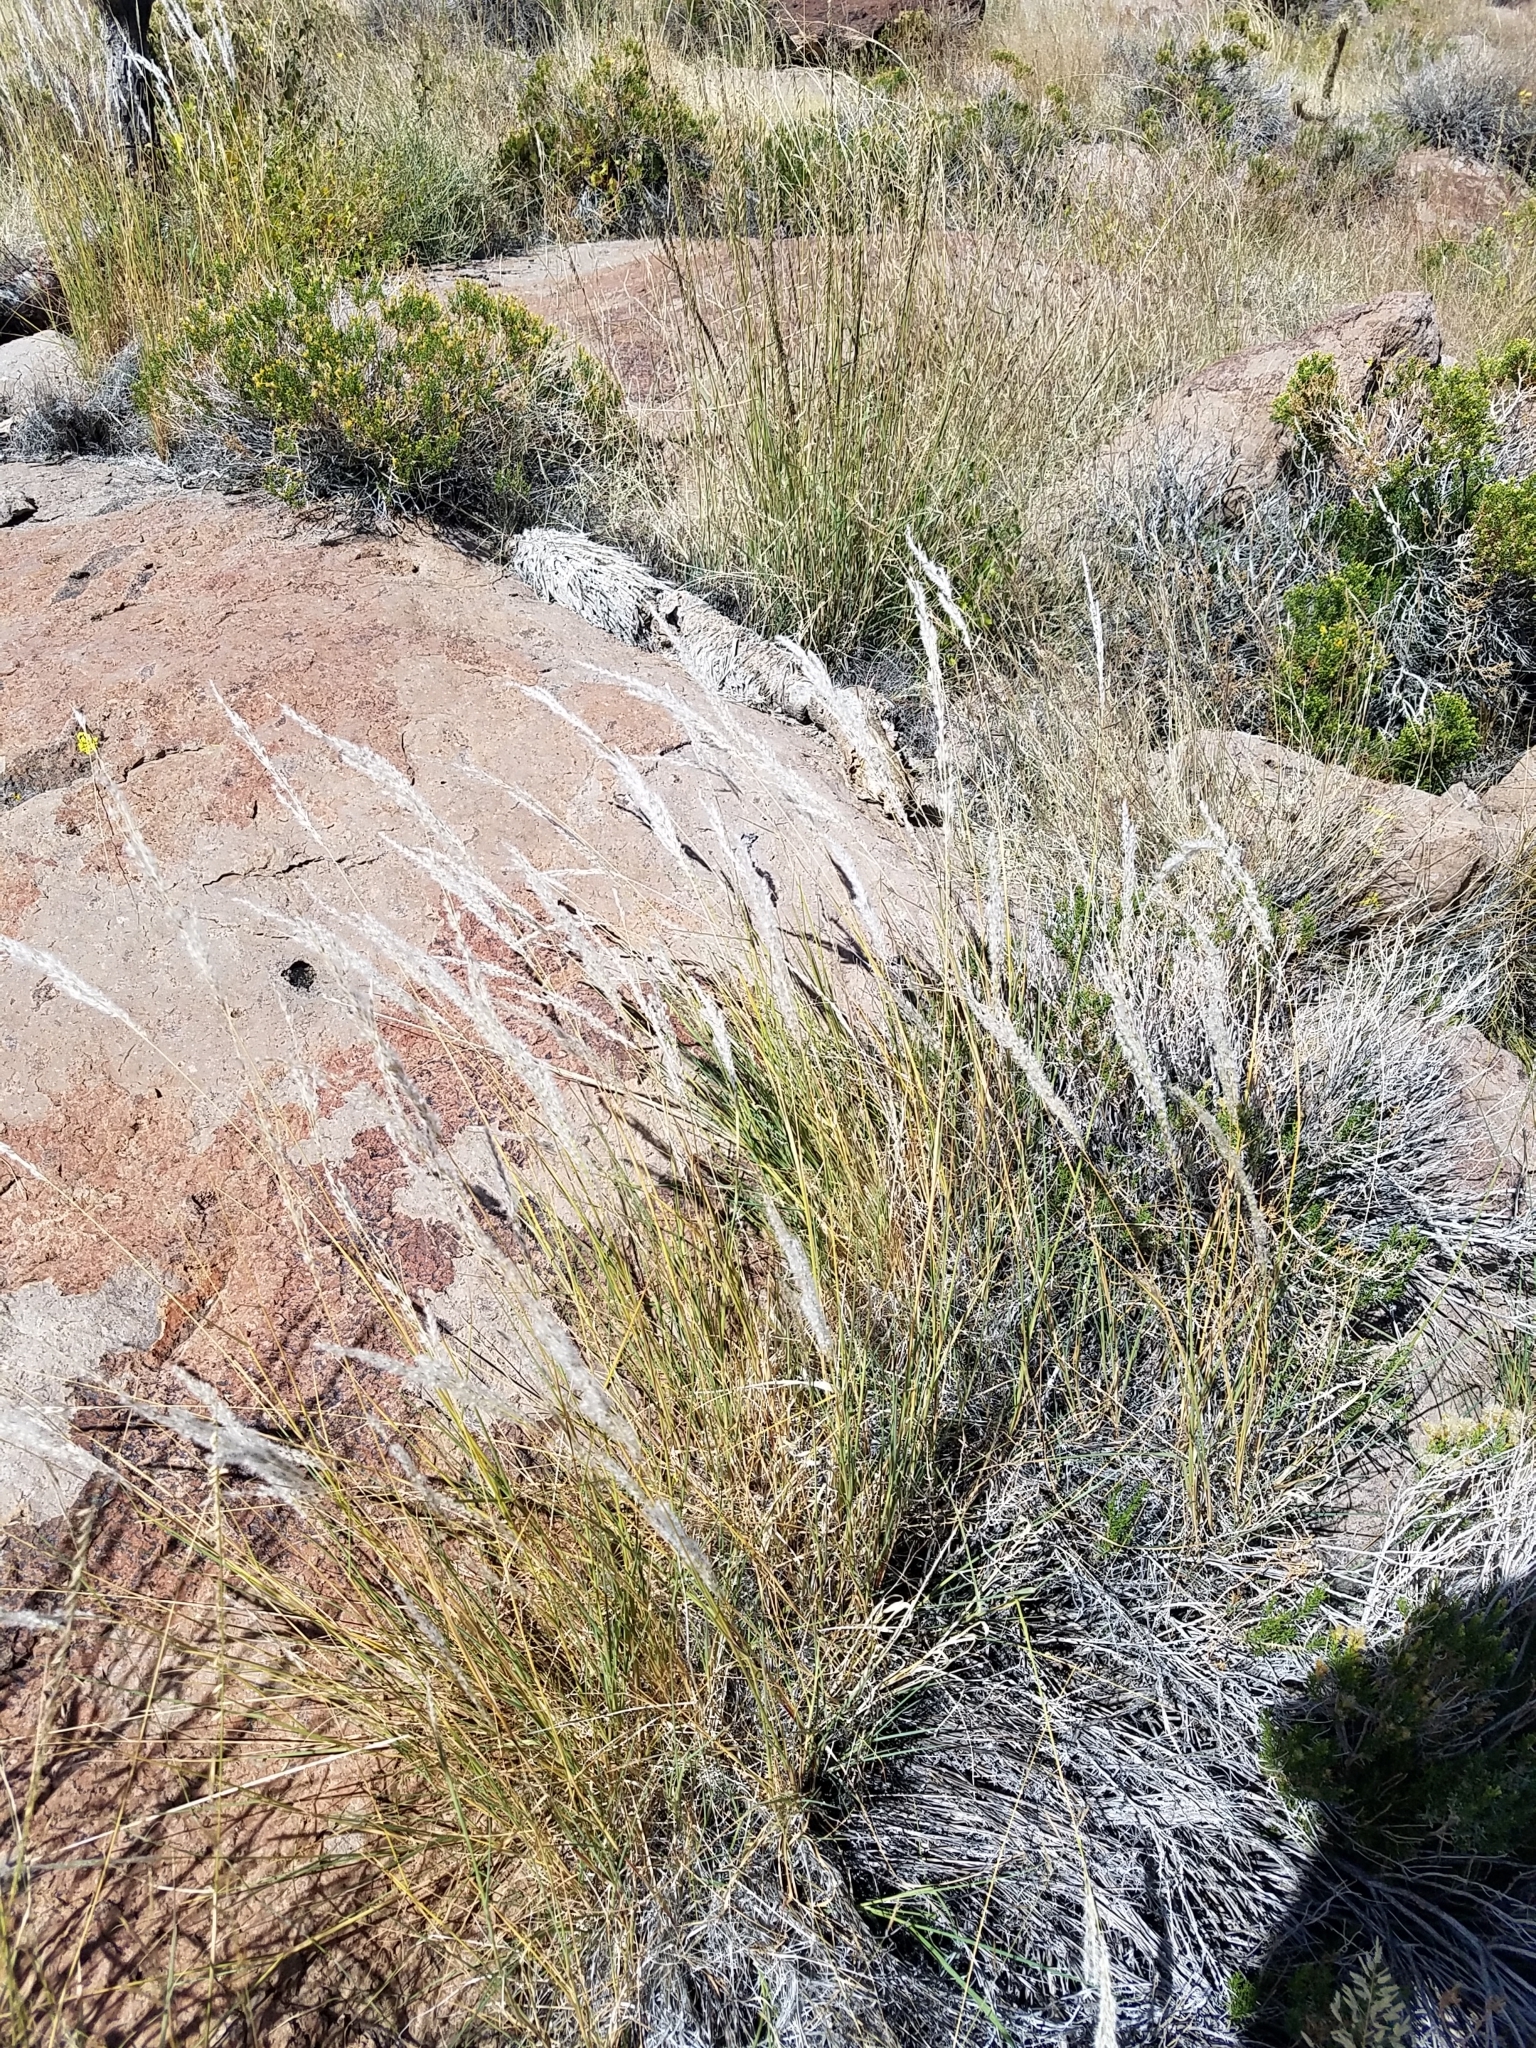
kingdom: Plantae
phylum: Tracheophyta
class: Liliopsida
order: Poales
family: Poaceae
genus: Digitaria
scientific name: Digitaria californica
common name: Arizona cottontop
